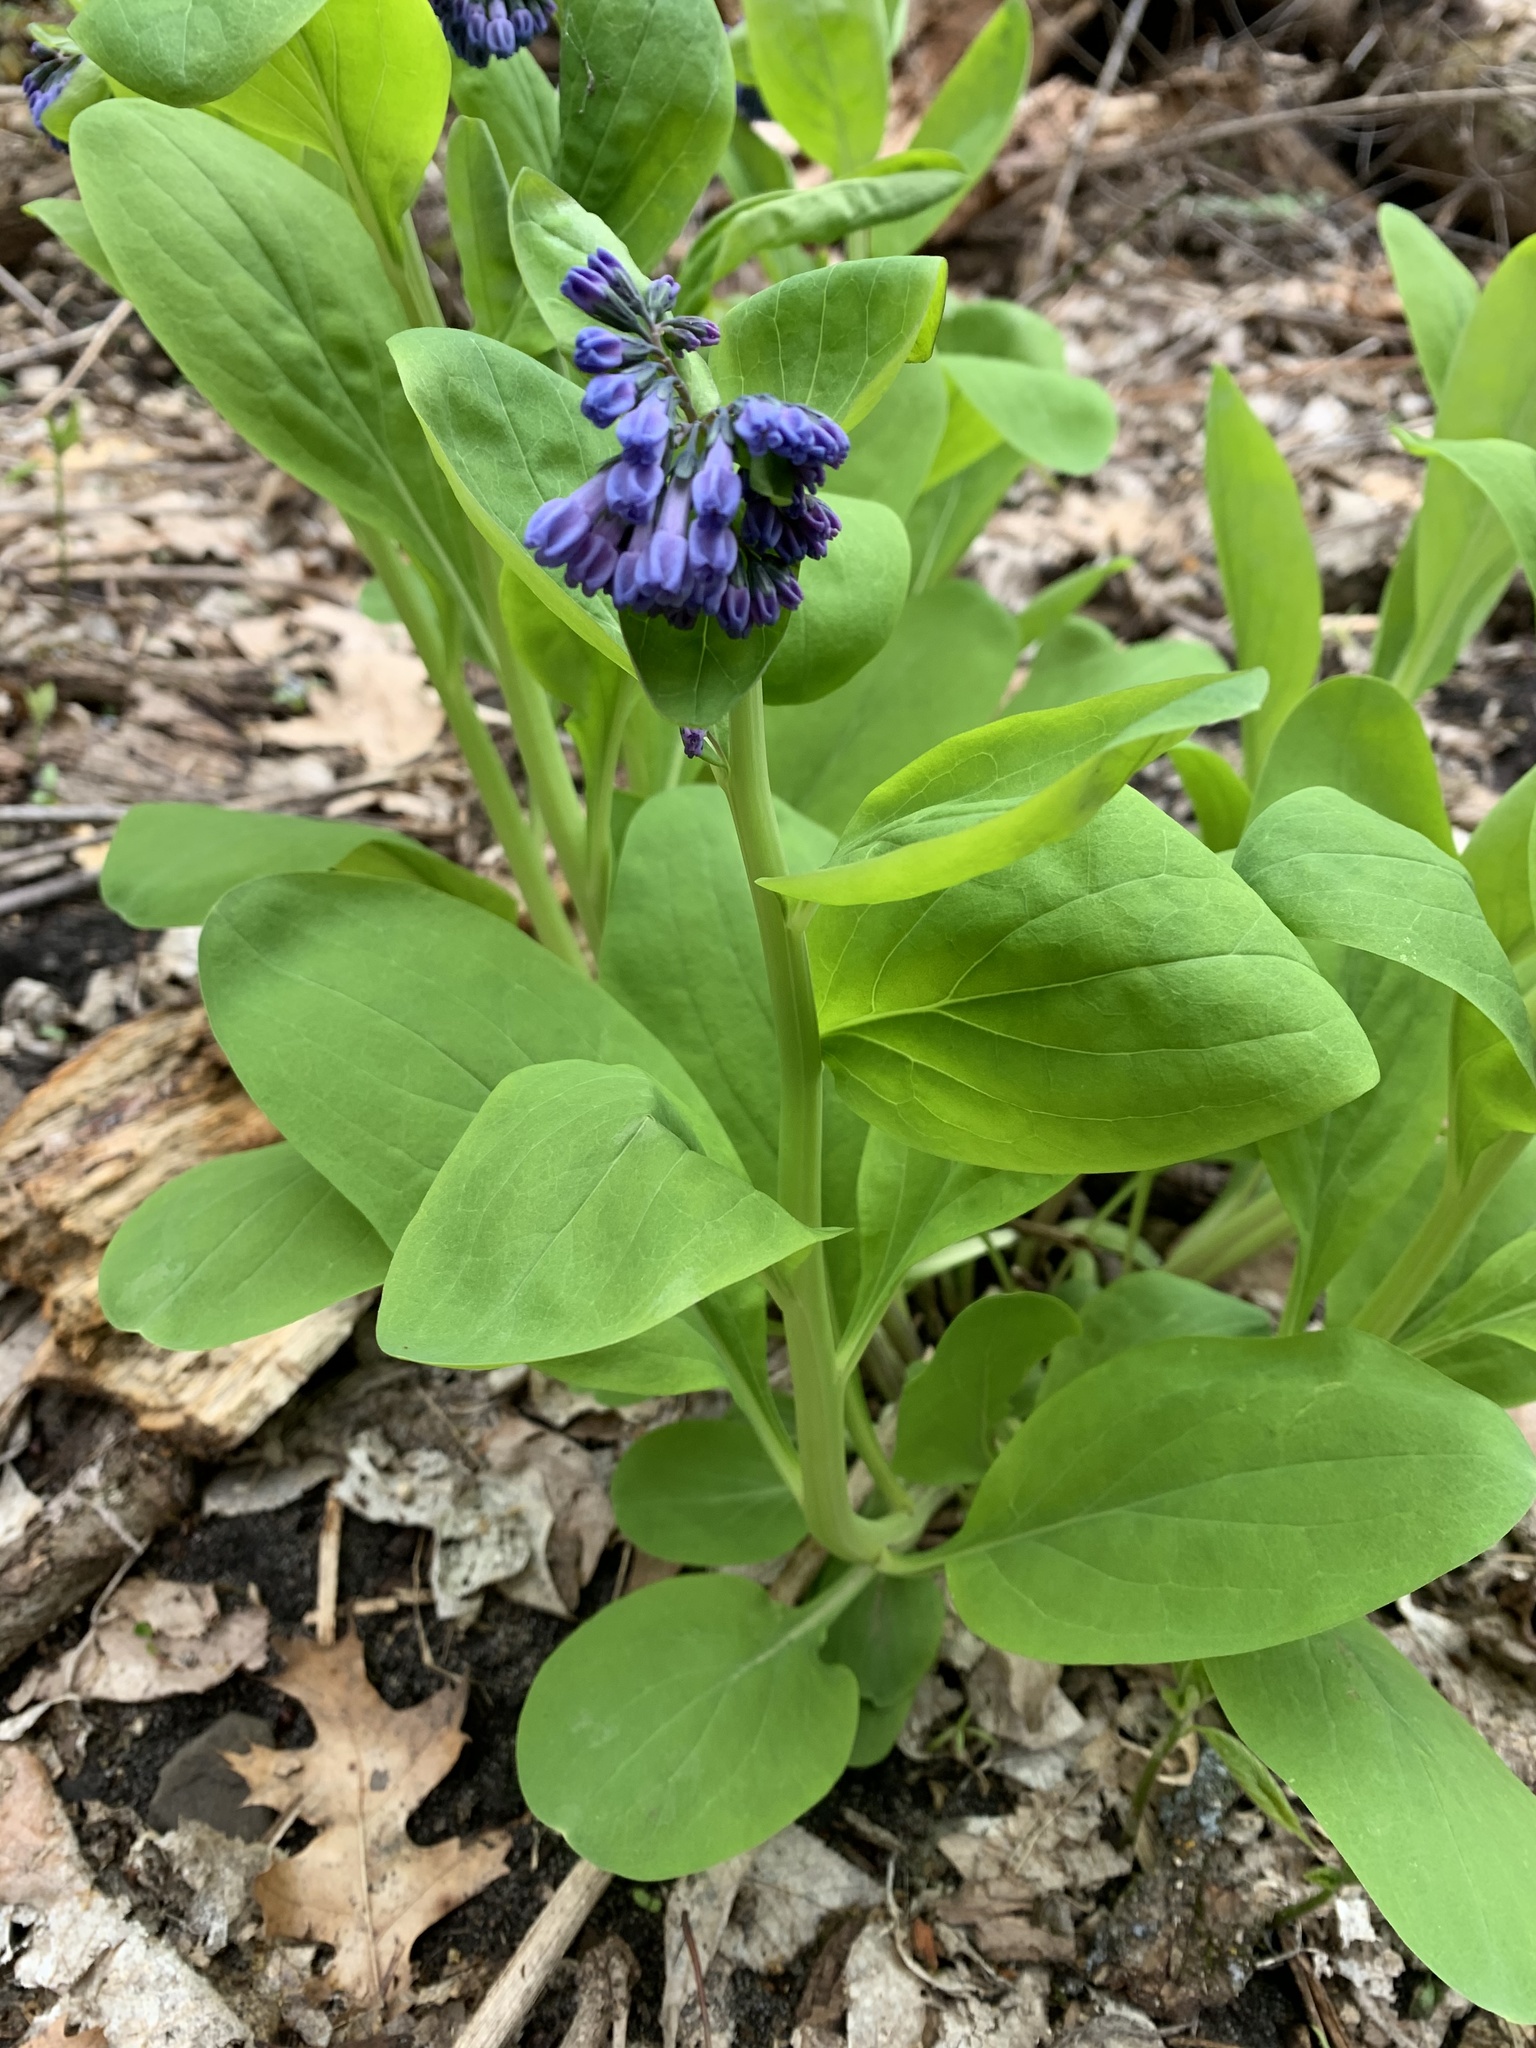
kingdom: Plantae
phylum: Tracheophyta
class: Magnoliopsida
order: Boraginales
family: Boraginaceae
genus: Mertensia
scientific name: Mertensia virginica
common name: Virginia bluebells
